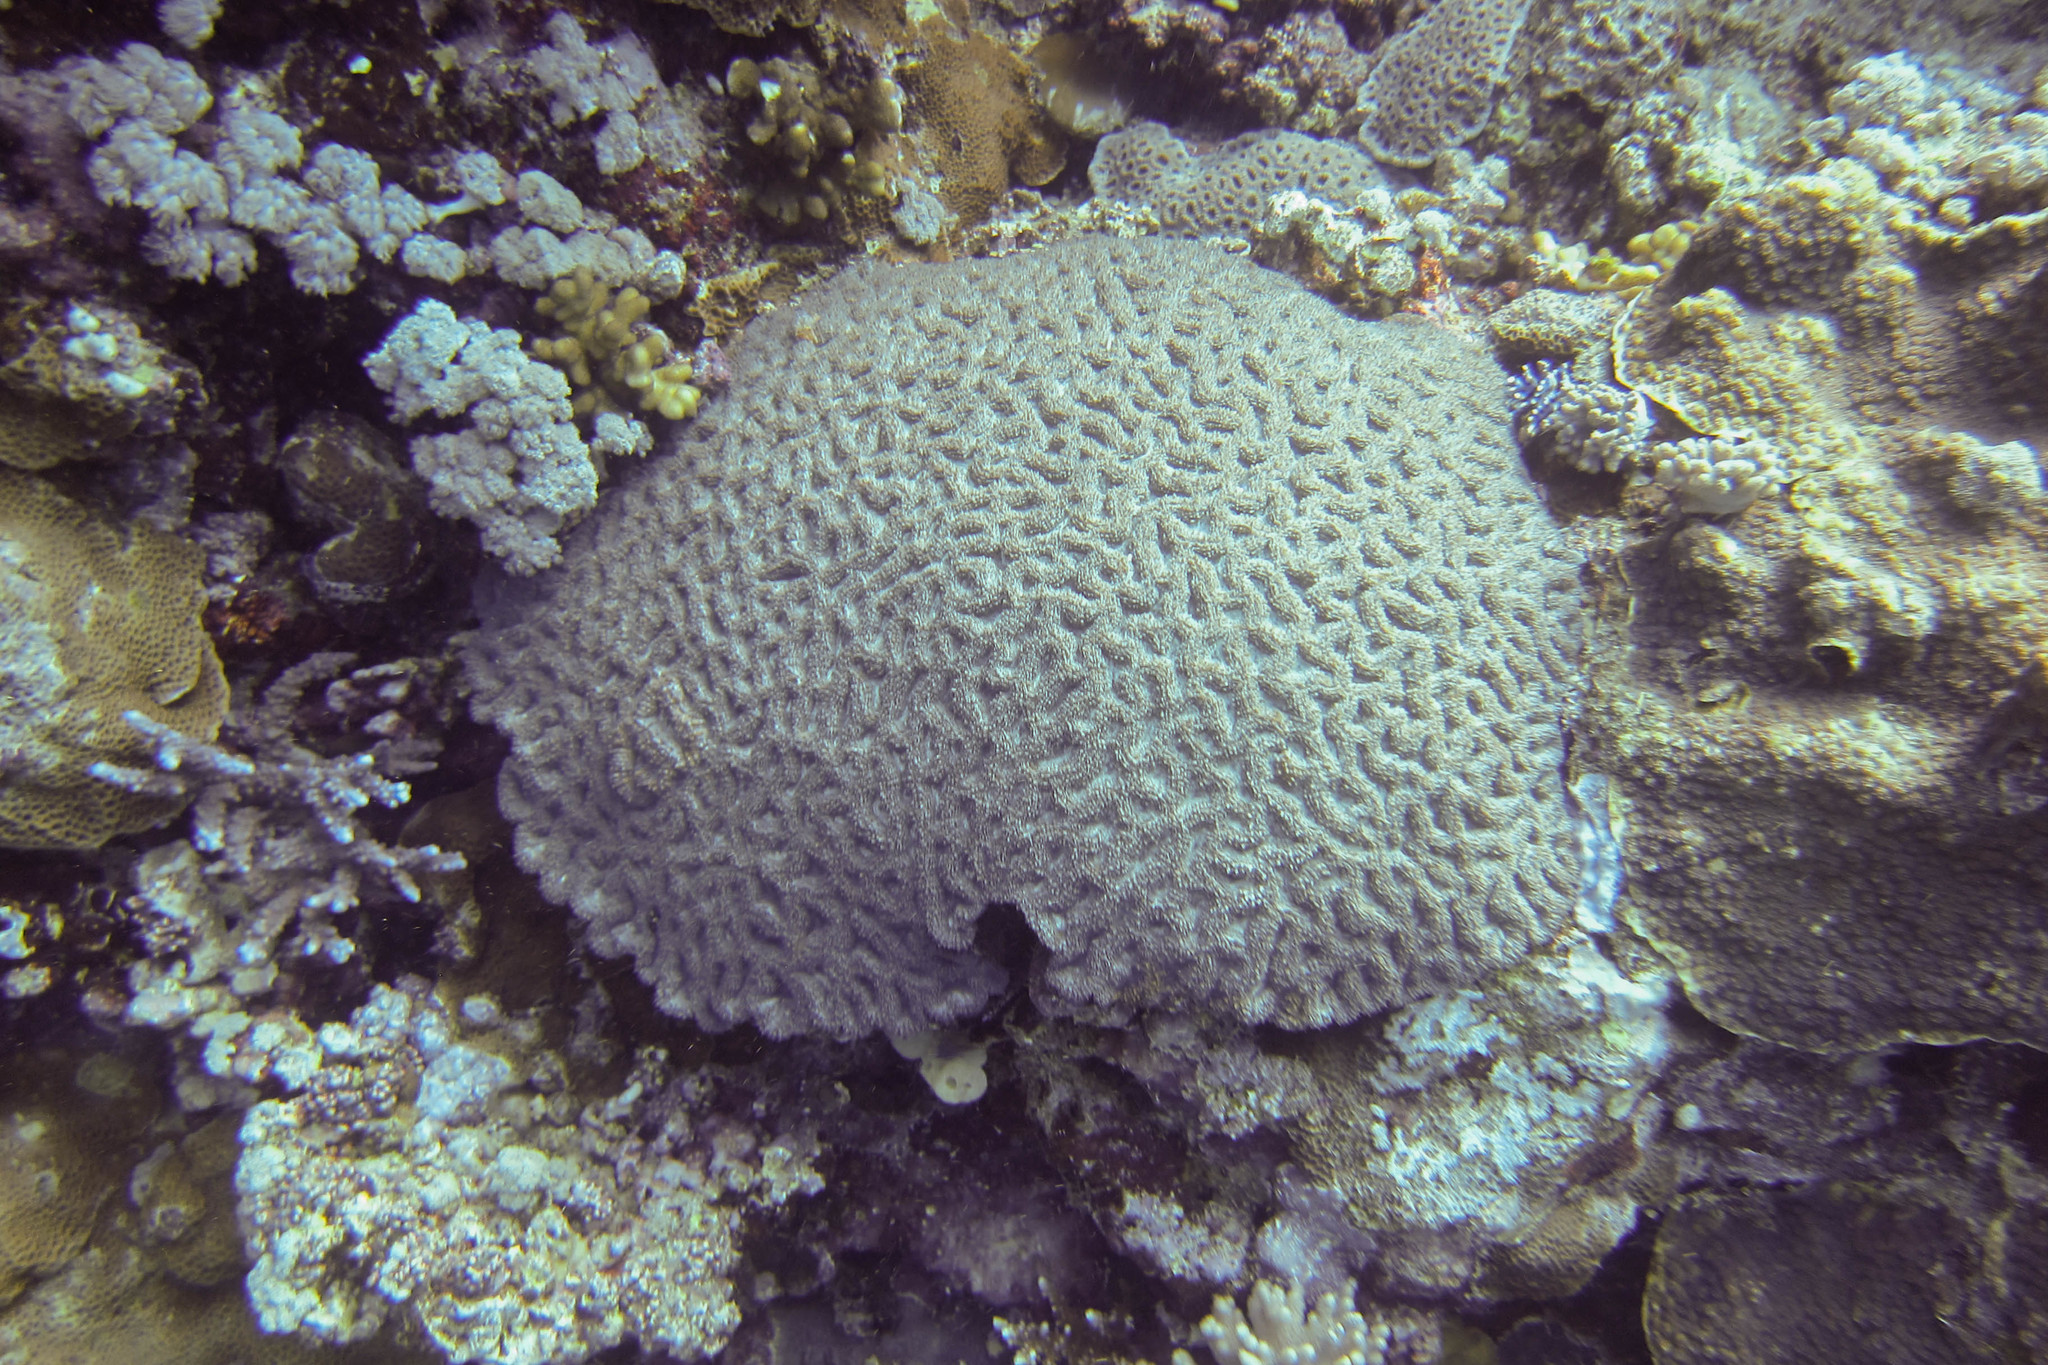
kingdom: Animalia
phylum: Cnidaria
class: Anthozoa
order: Scleractinia
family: Lobophylliidae
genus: Lobophyllia
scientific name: Lobophyllia erythraea
